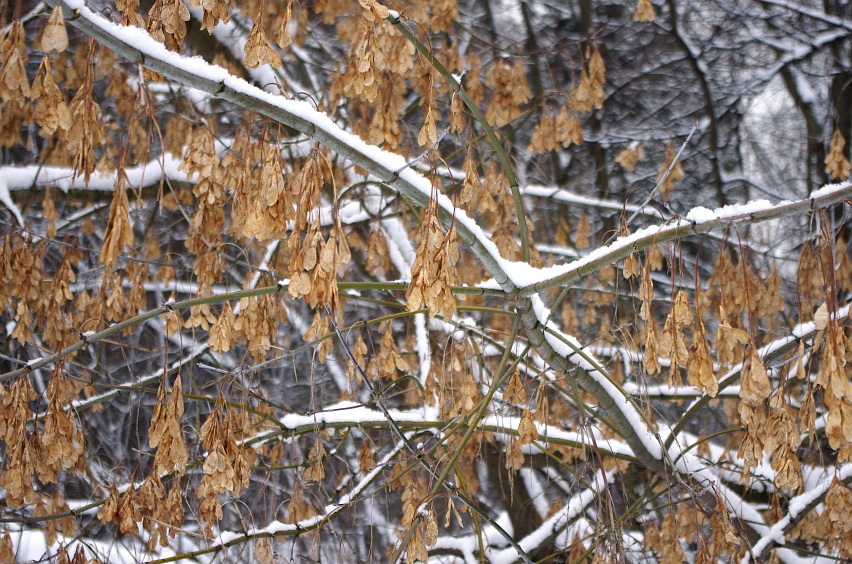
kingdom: Plantae
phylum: Tracheophyta
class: Magnoliopsida
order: Sapindales
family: Sapindaceae
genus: Acer
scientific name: Acer negundo
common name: Ashleaf maple
